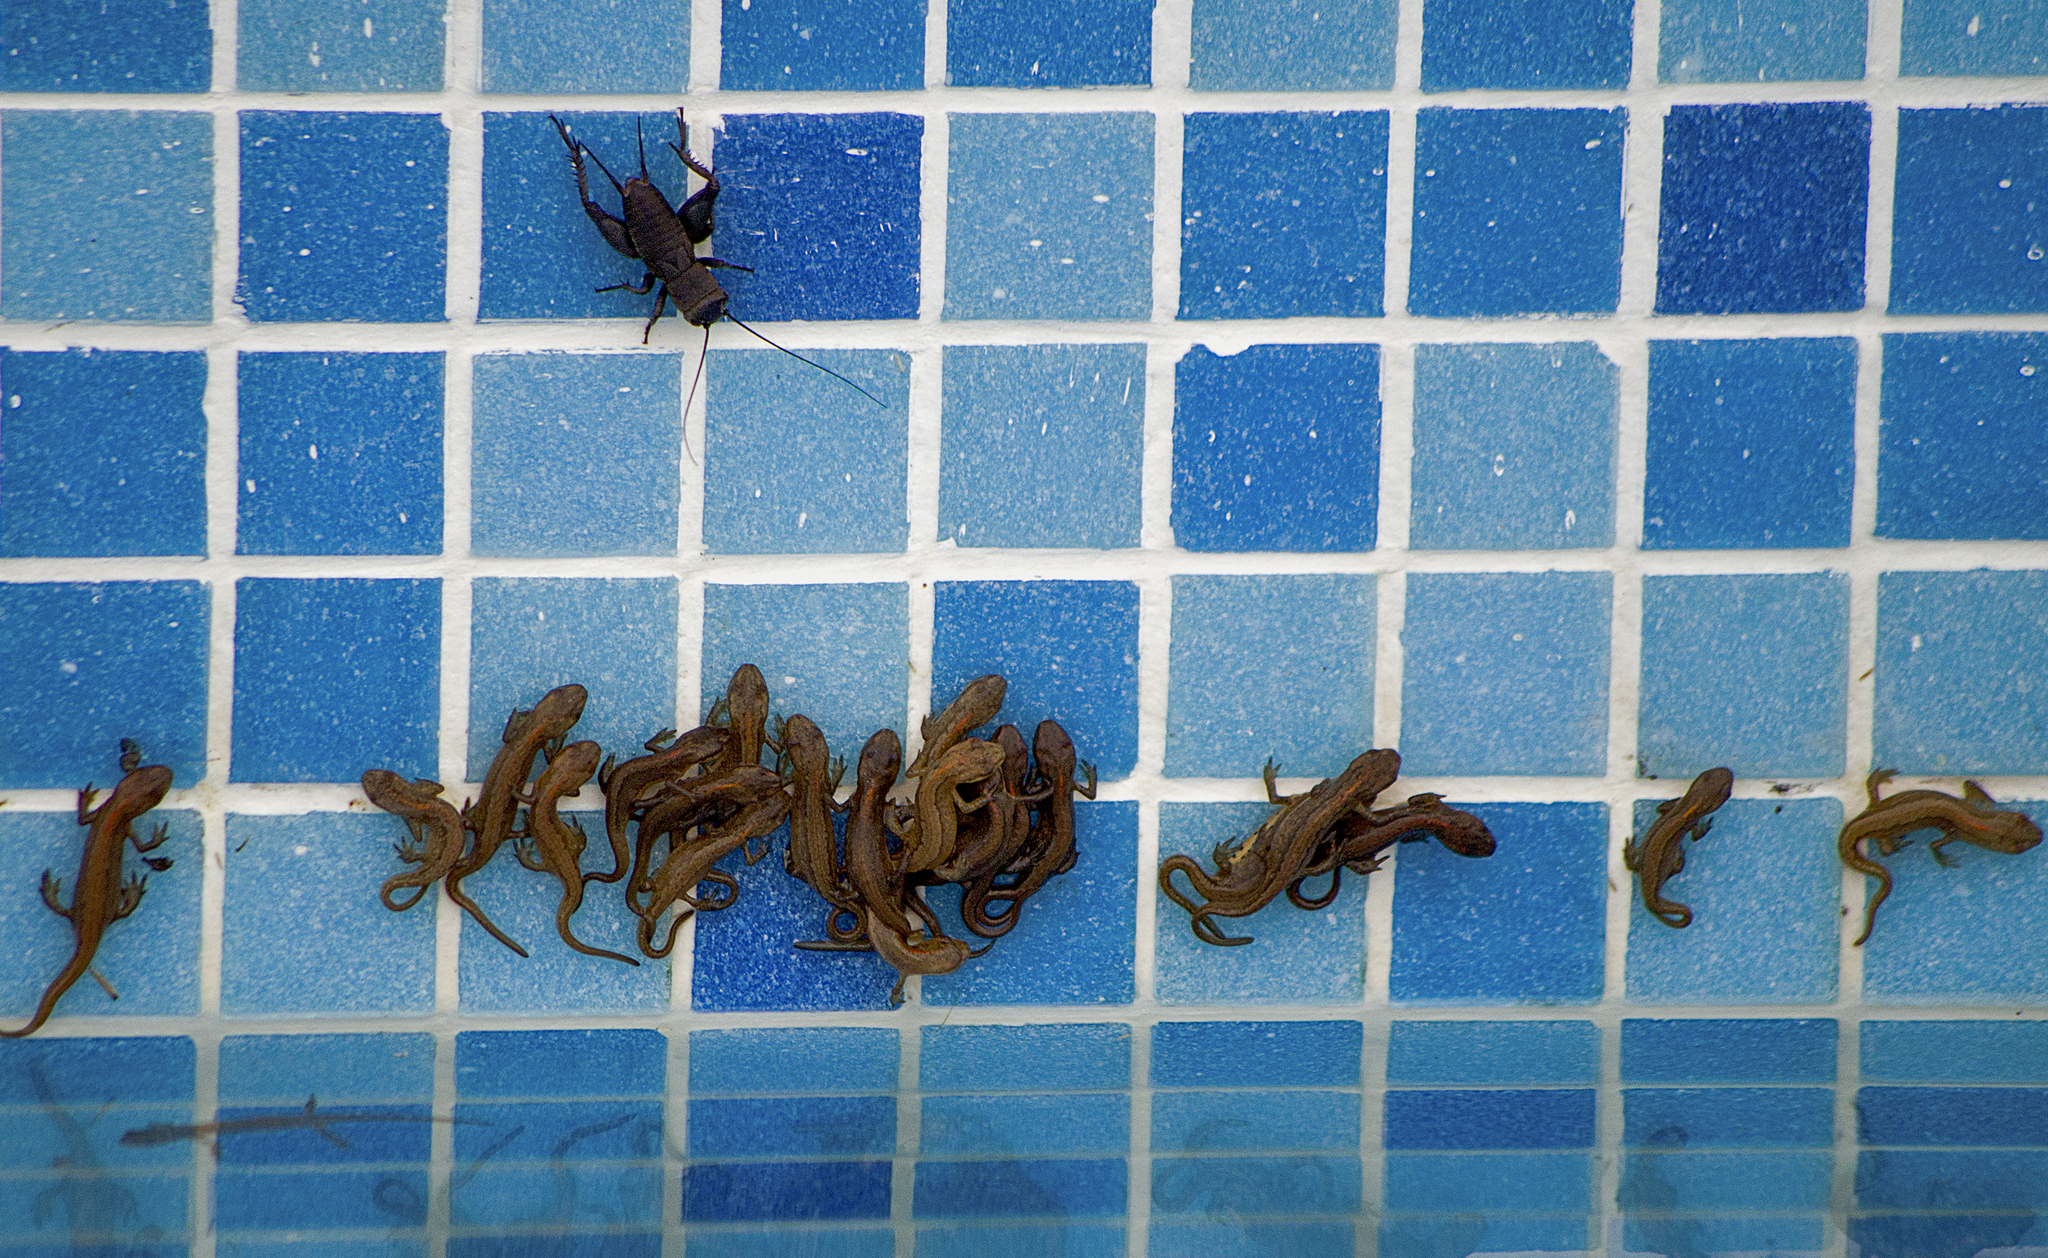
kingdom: Animalia
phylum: Chordata
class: Amphibia
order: Caudata
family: Salamandridae
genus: Lissotriton
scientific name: Lissotriton schmidtleri
